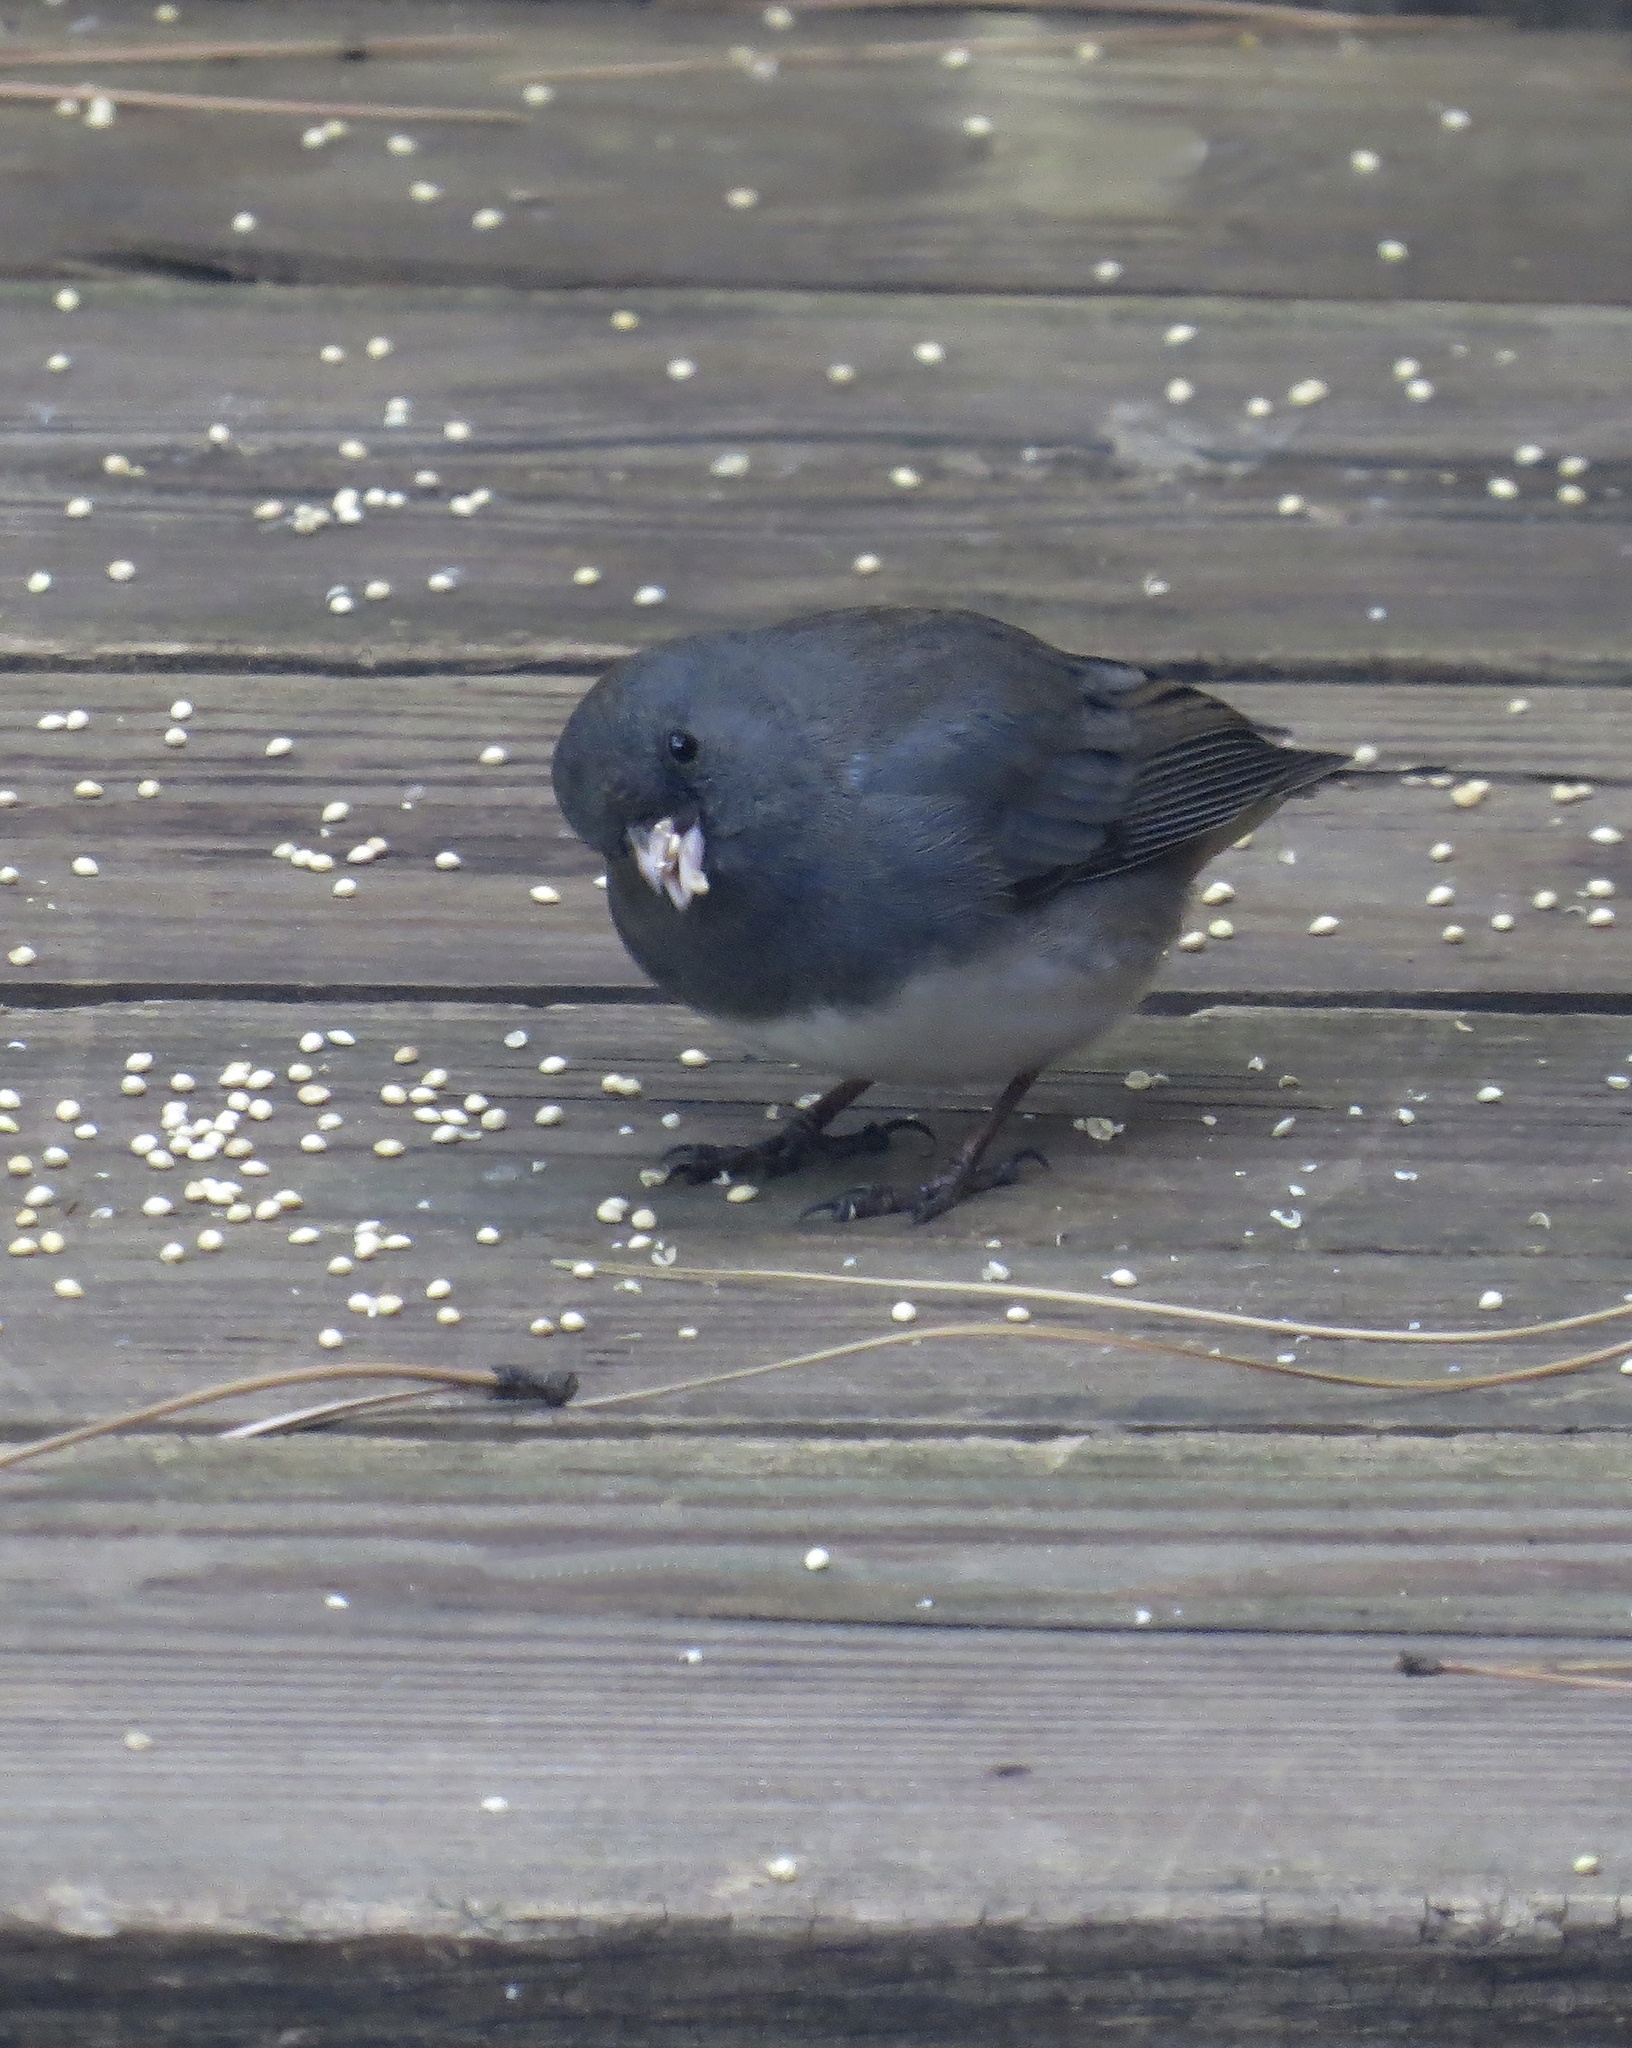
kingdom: Animalia
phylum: Chordata
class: Aves
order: Passeriformes
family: Passerellidae
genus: Junco
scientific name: Junco hyemalis
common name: Dark-eyed junco
